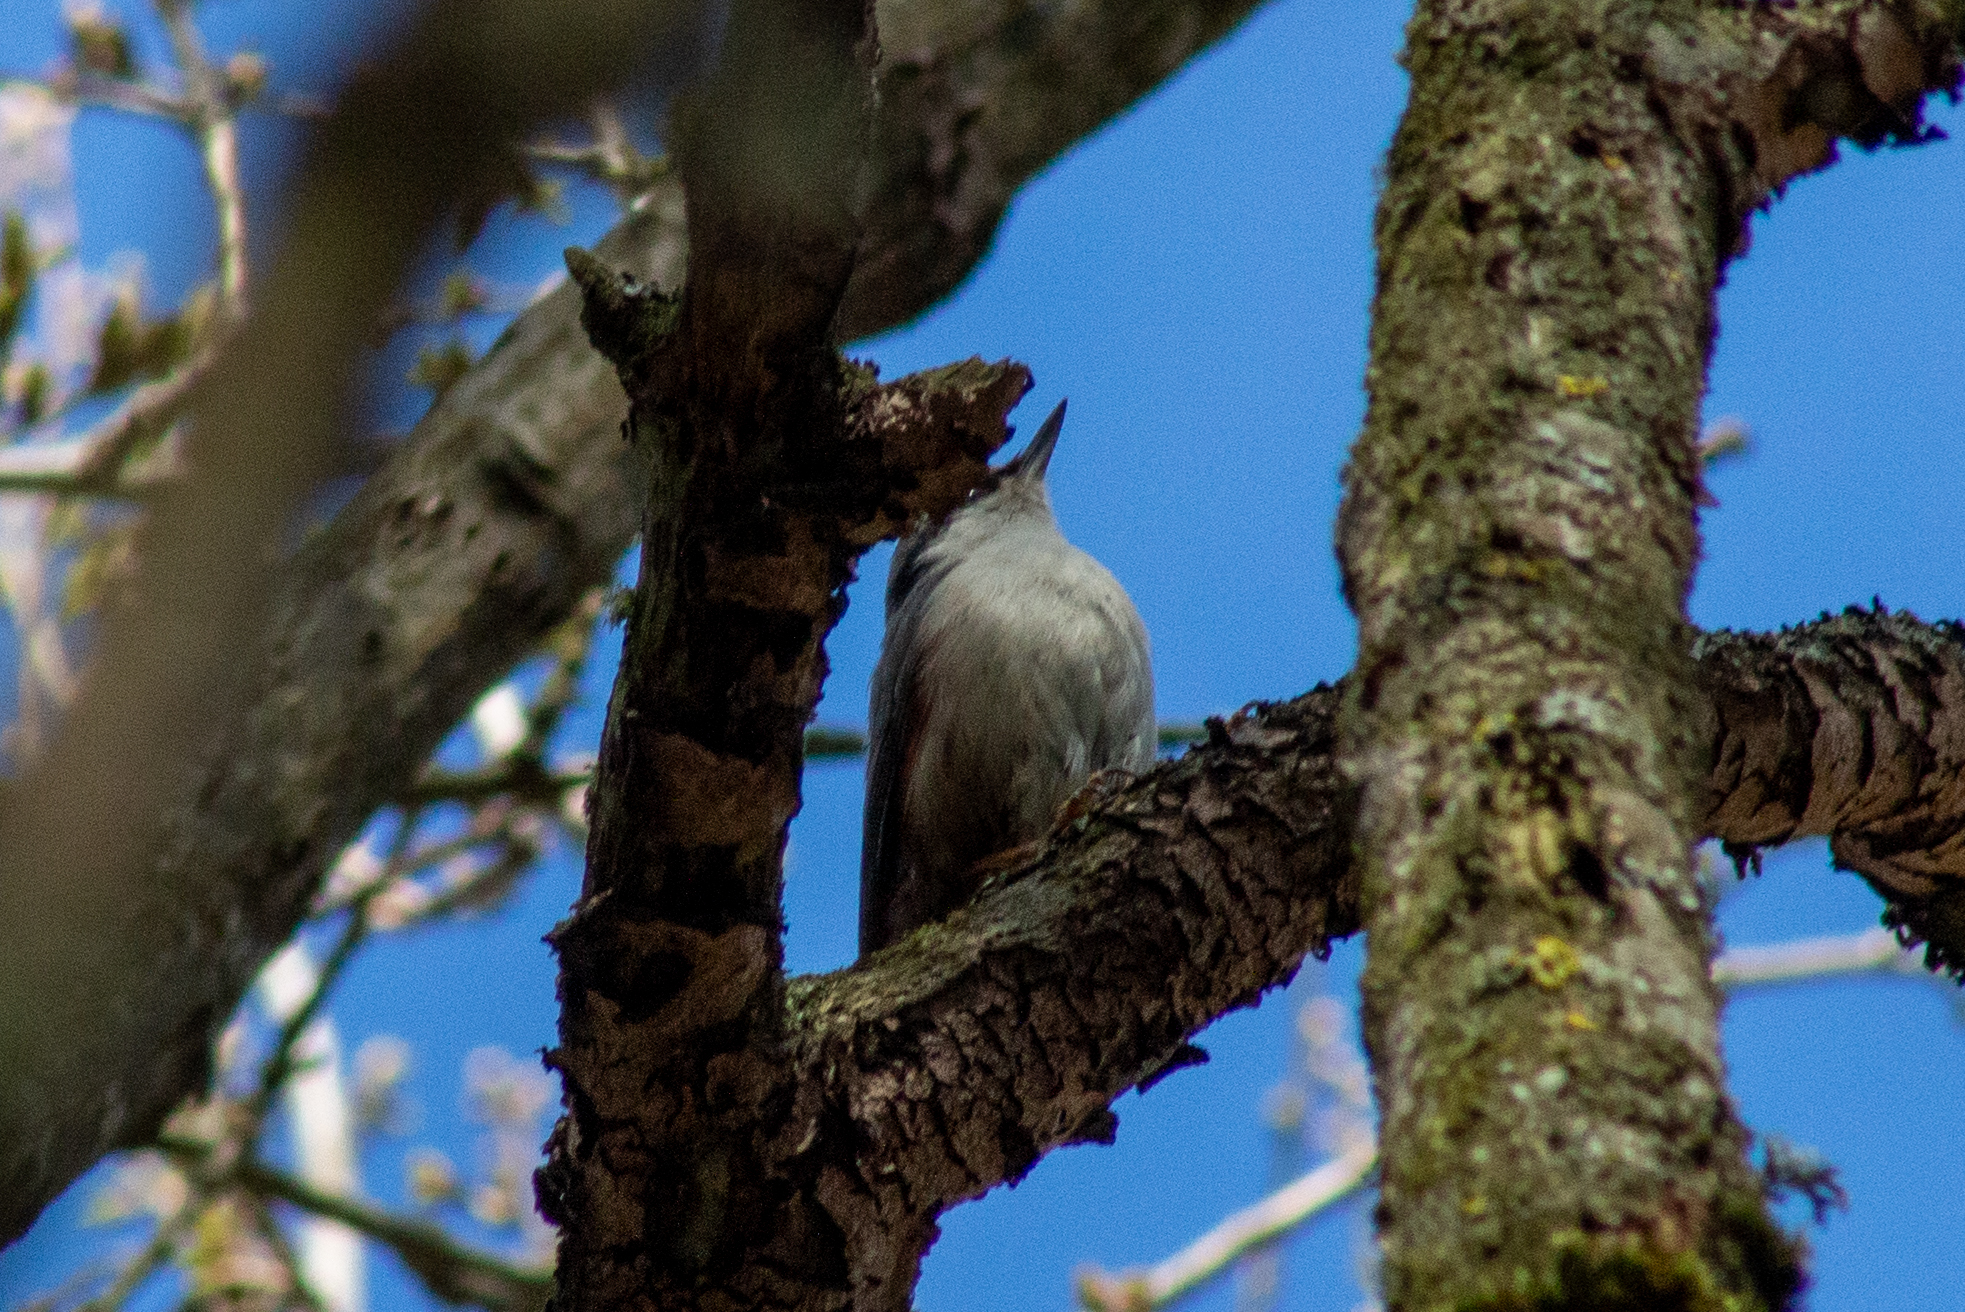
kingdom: Animalia
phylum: Chordata
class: Aves
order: Passeriformes
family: Sittidae
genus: Sitta
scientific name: Sitta europaea
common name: Eurasian nuthatch
